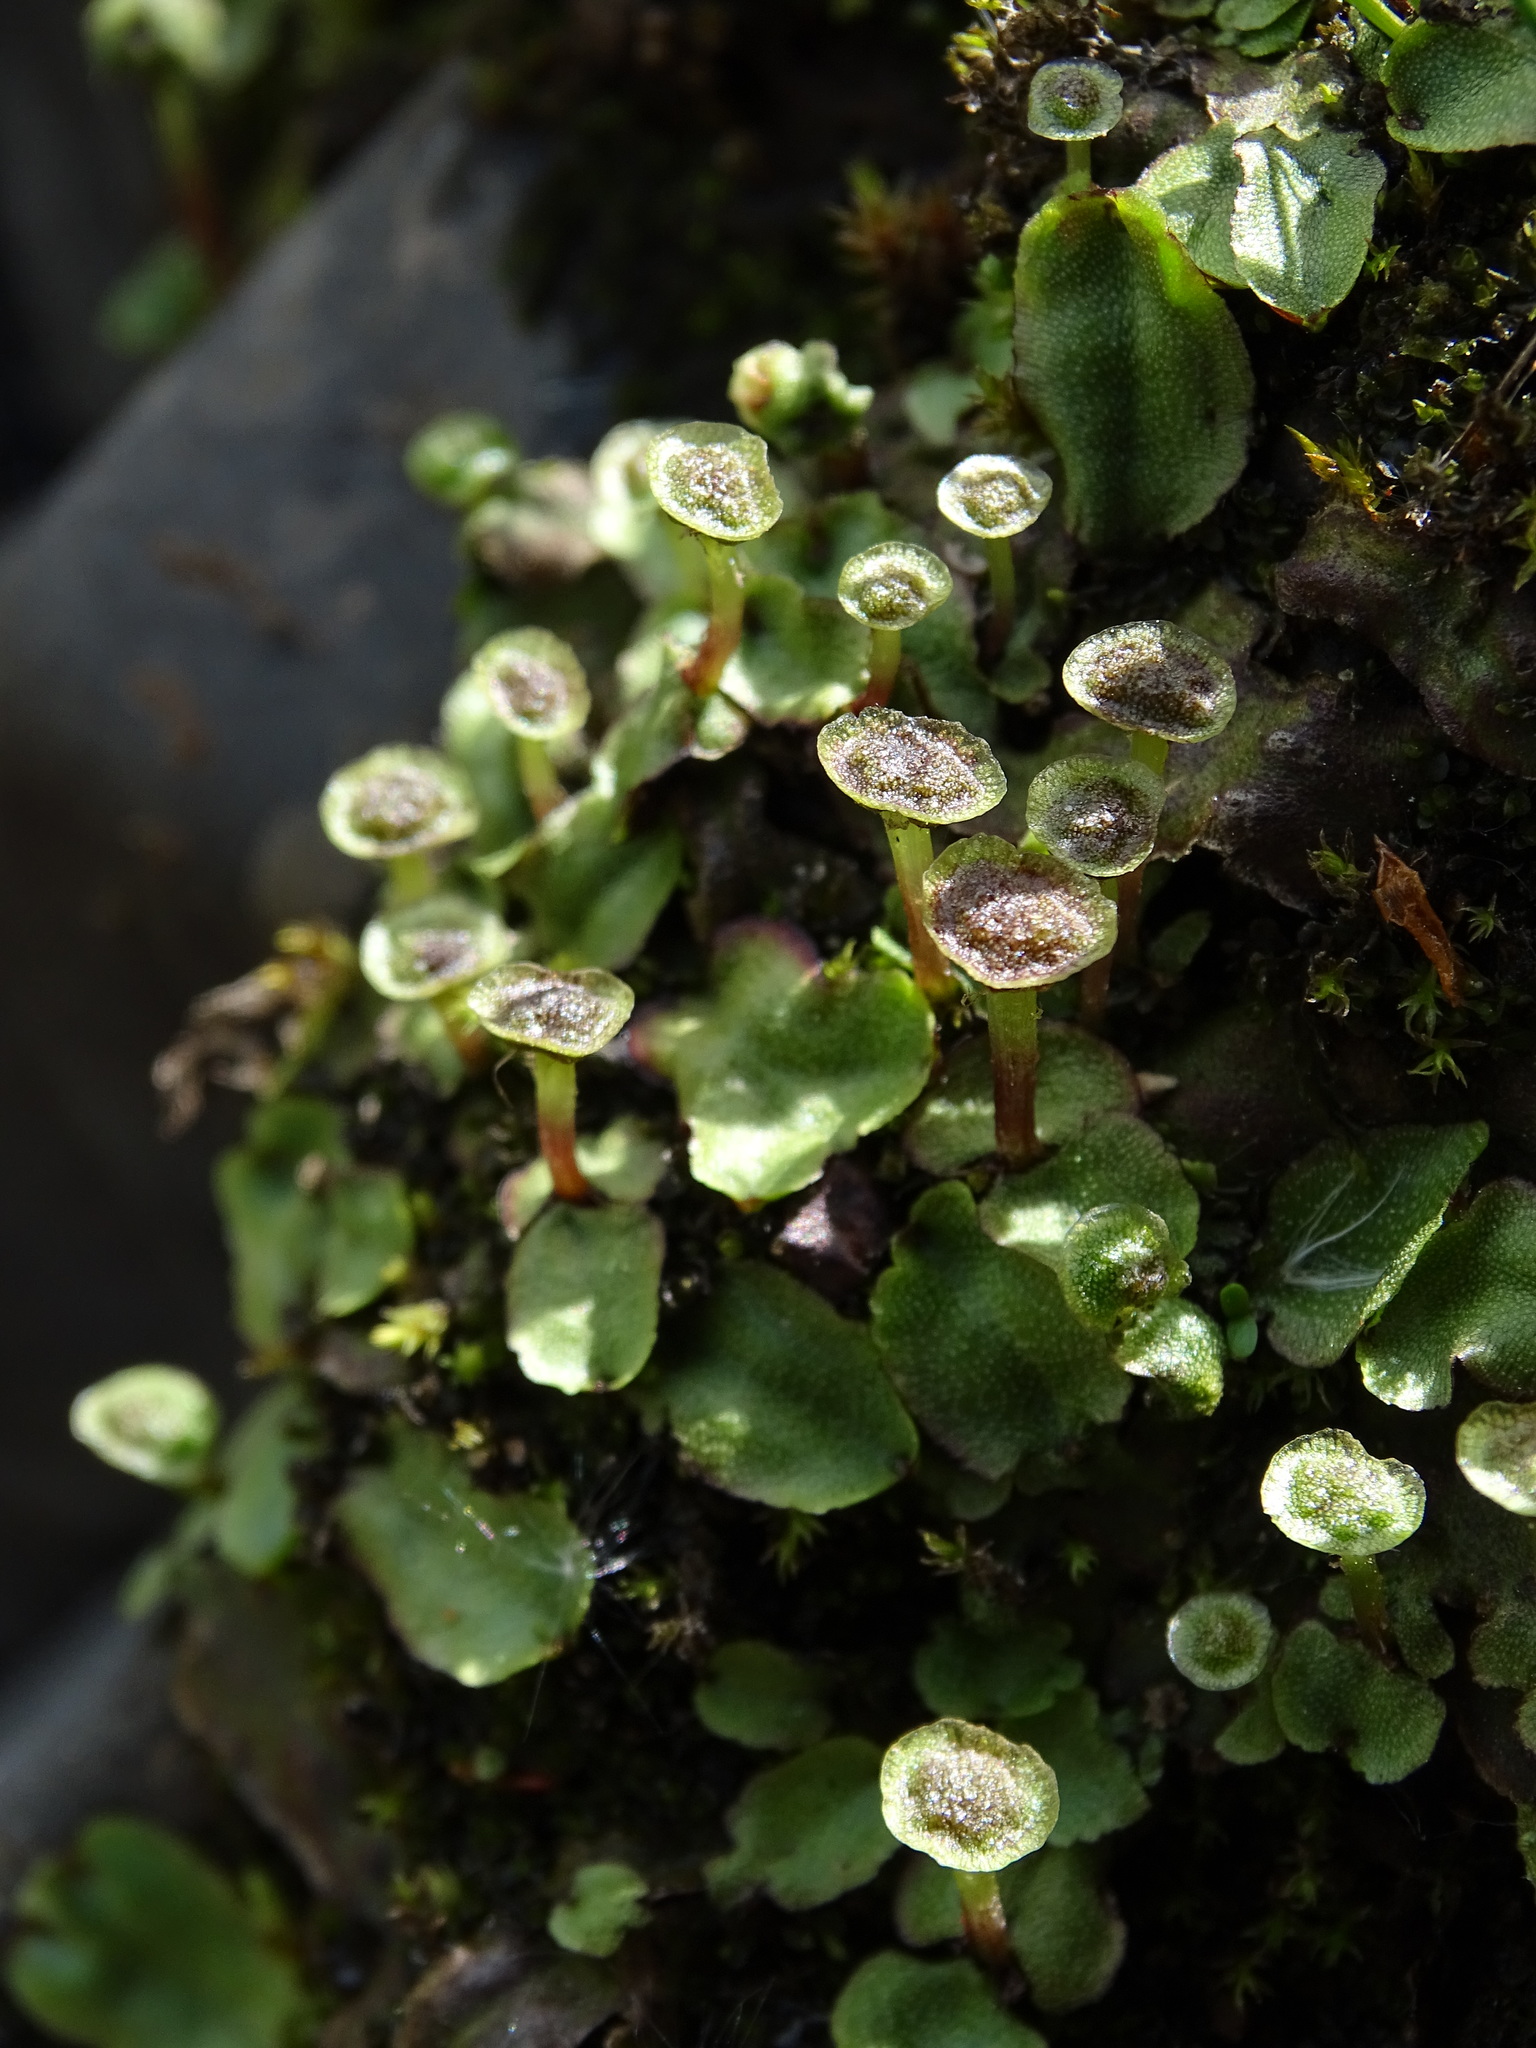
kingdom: Plantae
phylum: Marchantiophyta
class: Marchantiopsida
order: Marchantiales
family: Marchantiaceae
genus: Marchantia
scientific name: Marchantia quadrata
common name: Narrow mushroom-headed liverwort
